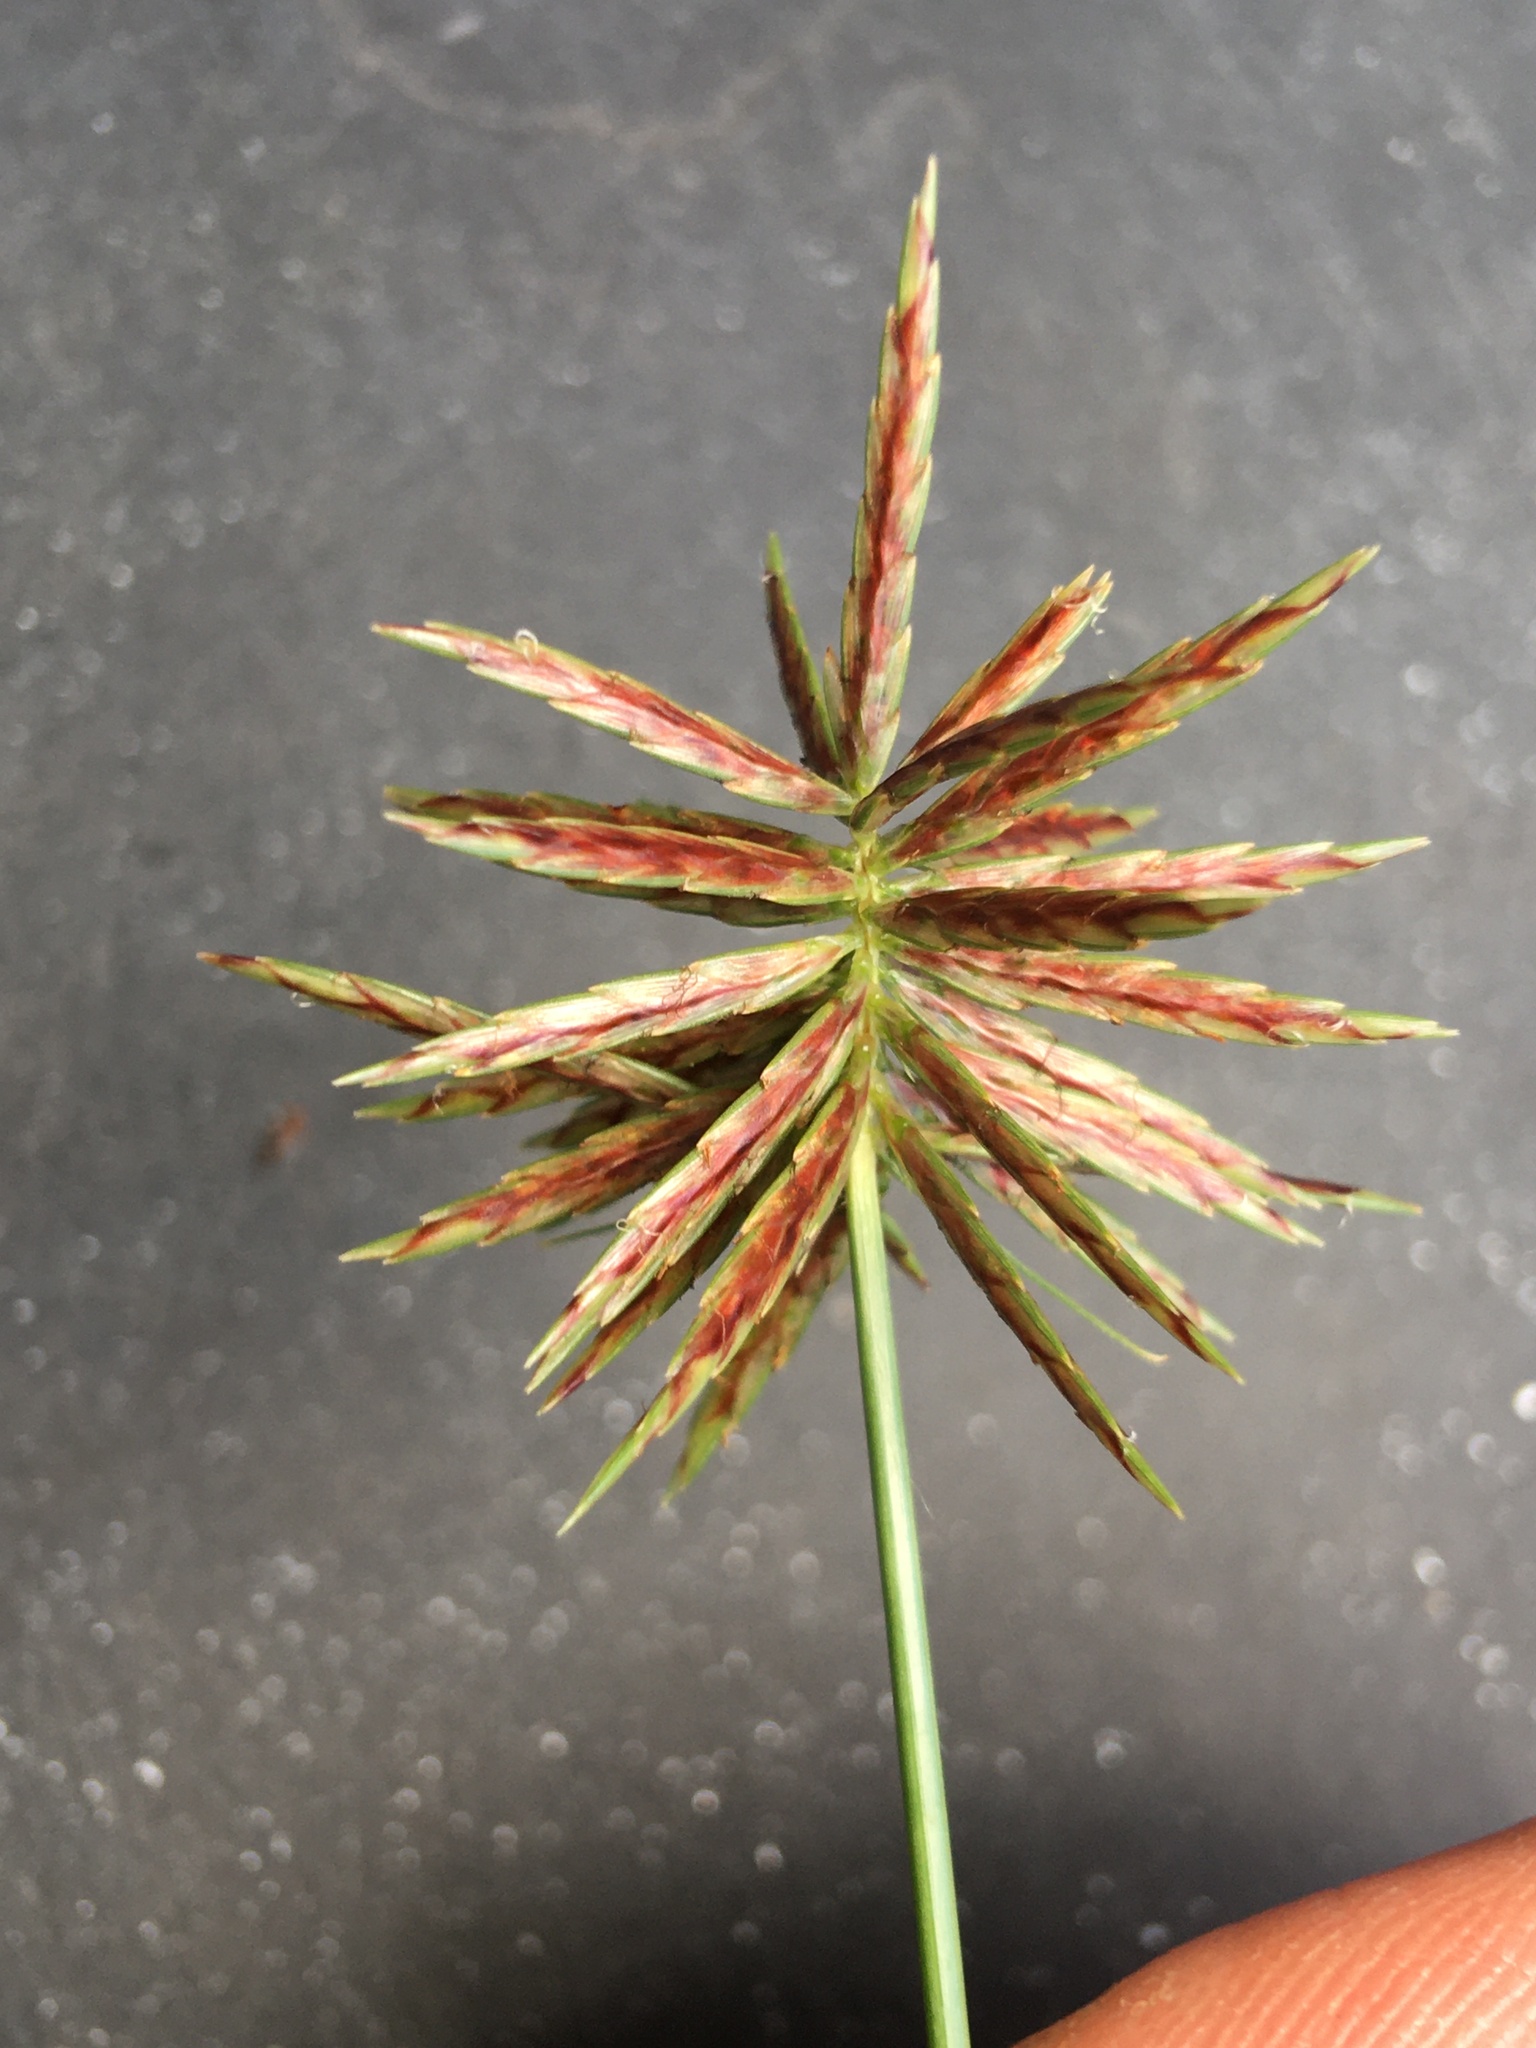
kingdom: Plantae
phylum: Tracheophyta
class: Liliopsida
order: Poales
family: Cyperaceae
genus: Cyperus
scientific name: Cyperus congestus
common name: Dense flat sedge
